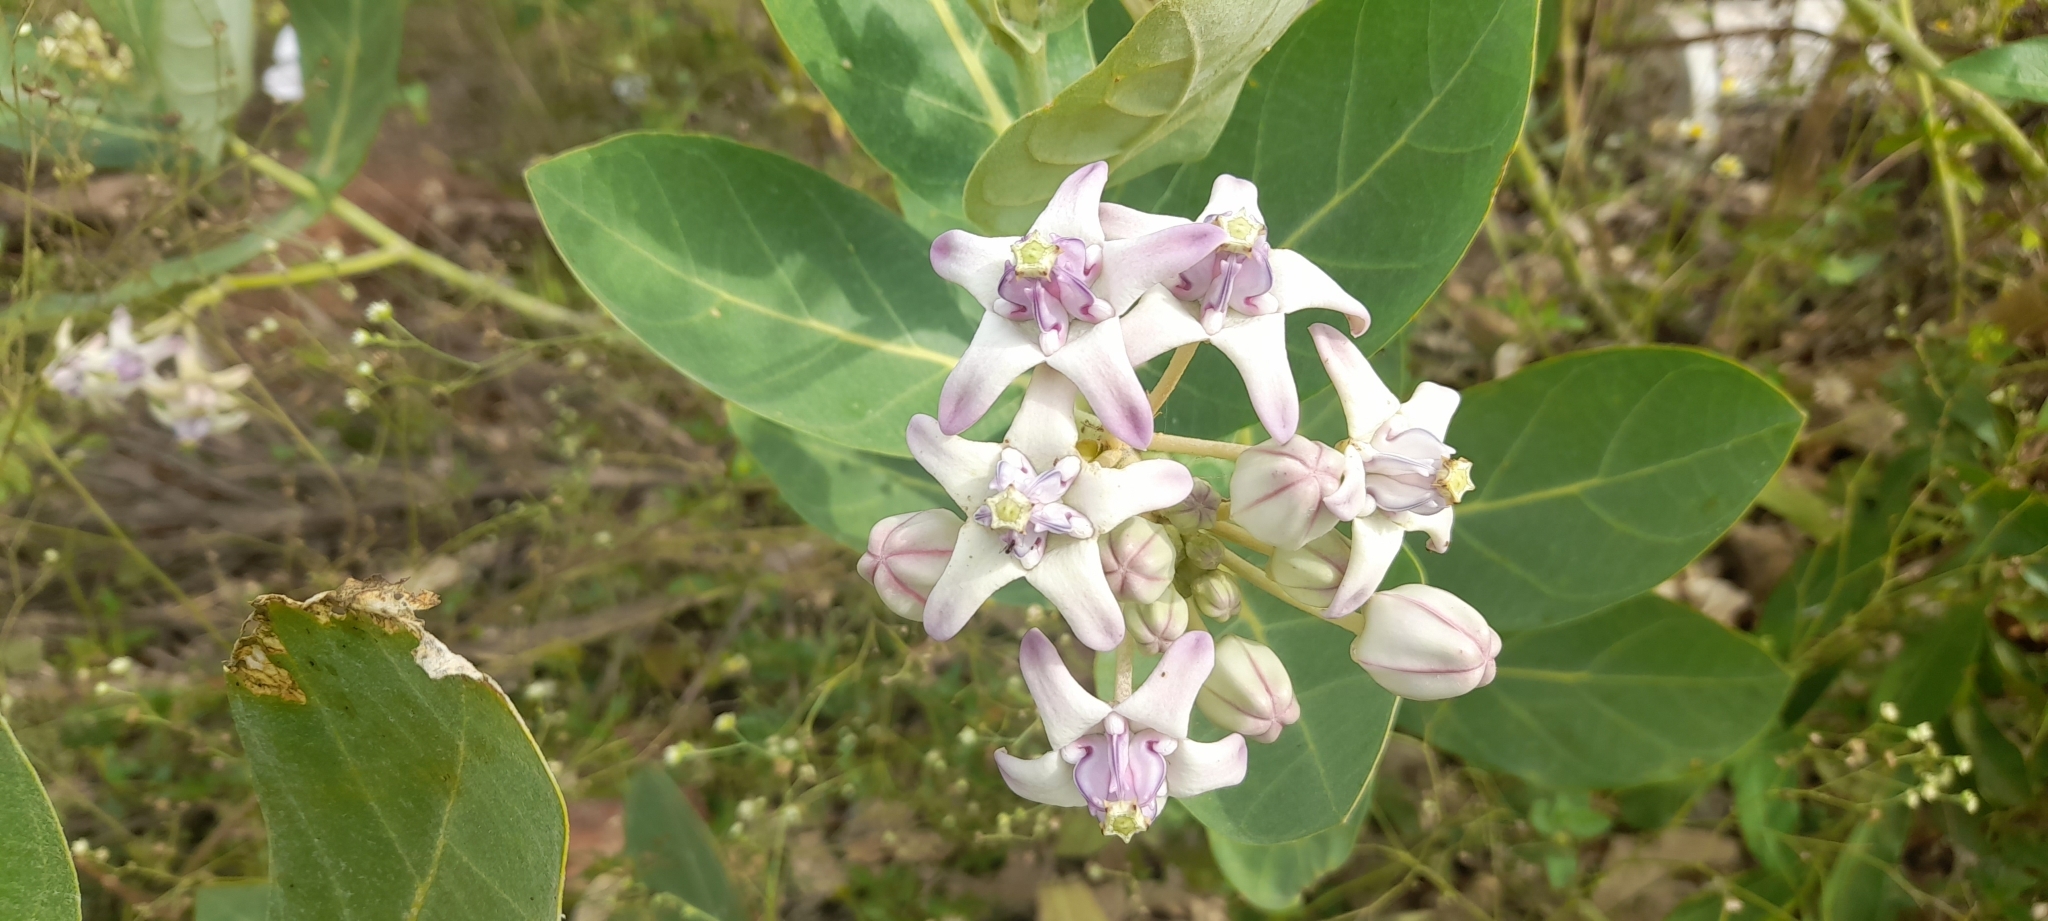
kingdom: Plantae
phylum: Tracheophyta
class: Magnoliopsida
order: Gentianales
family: Apocynaceae
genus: Calotropis
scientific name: Calotropis gigantea
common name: Crown flower
